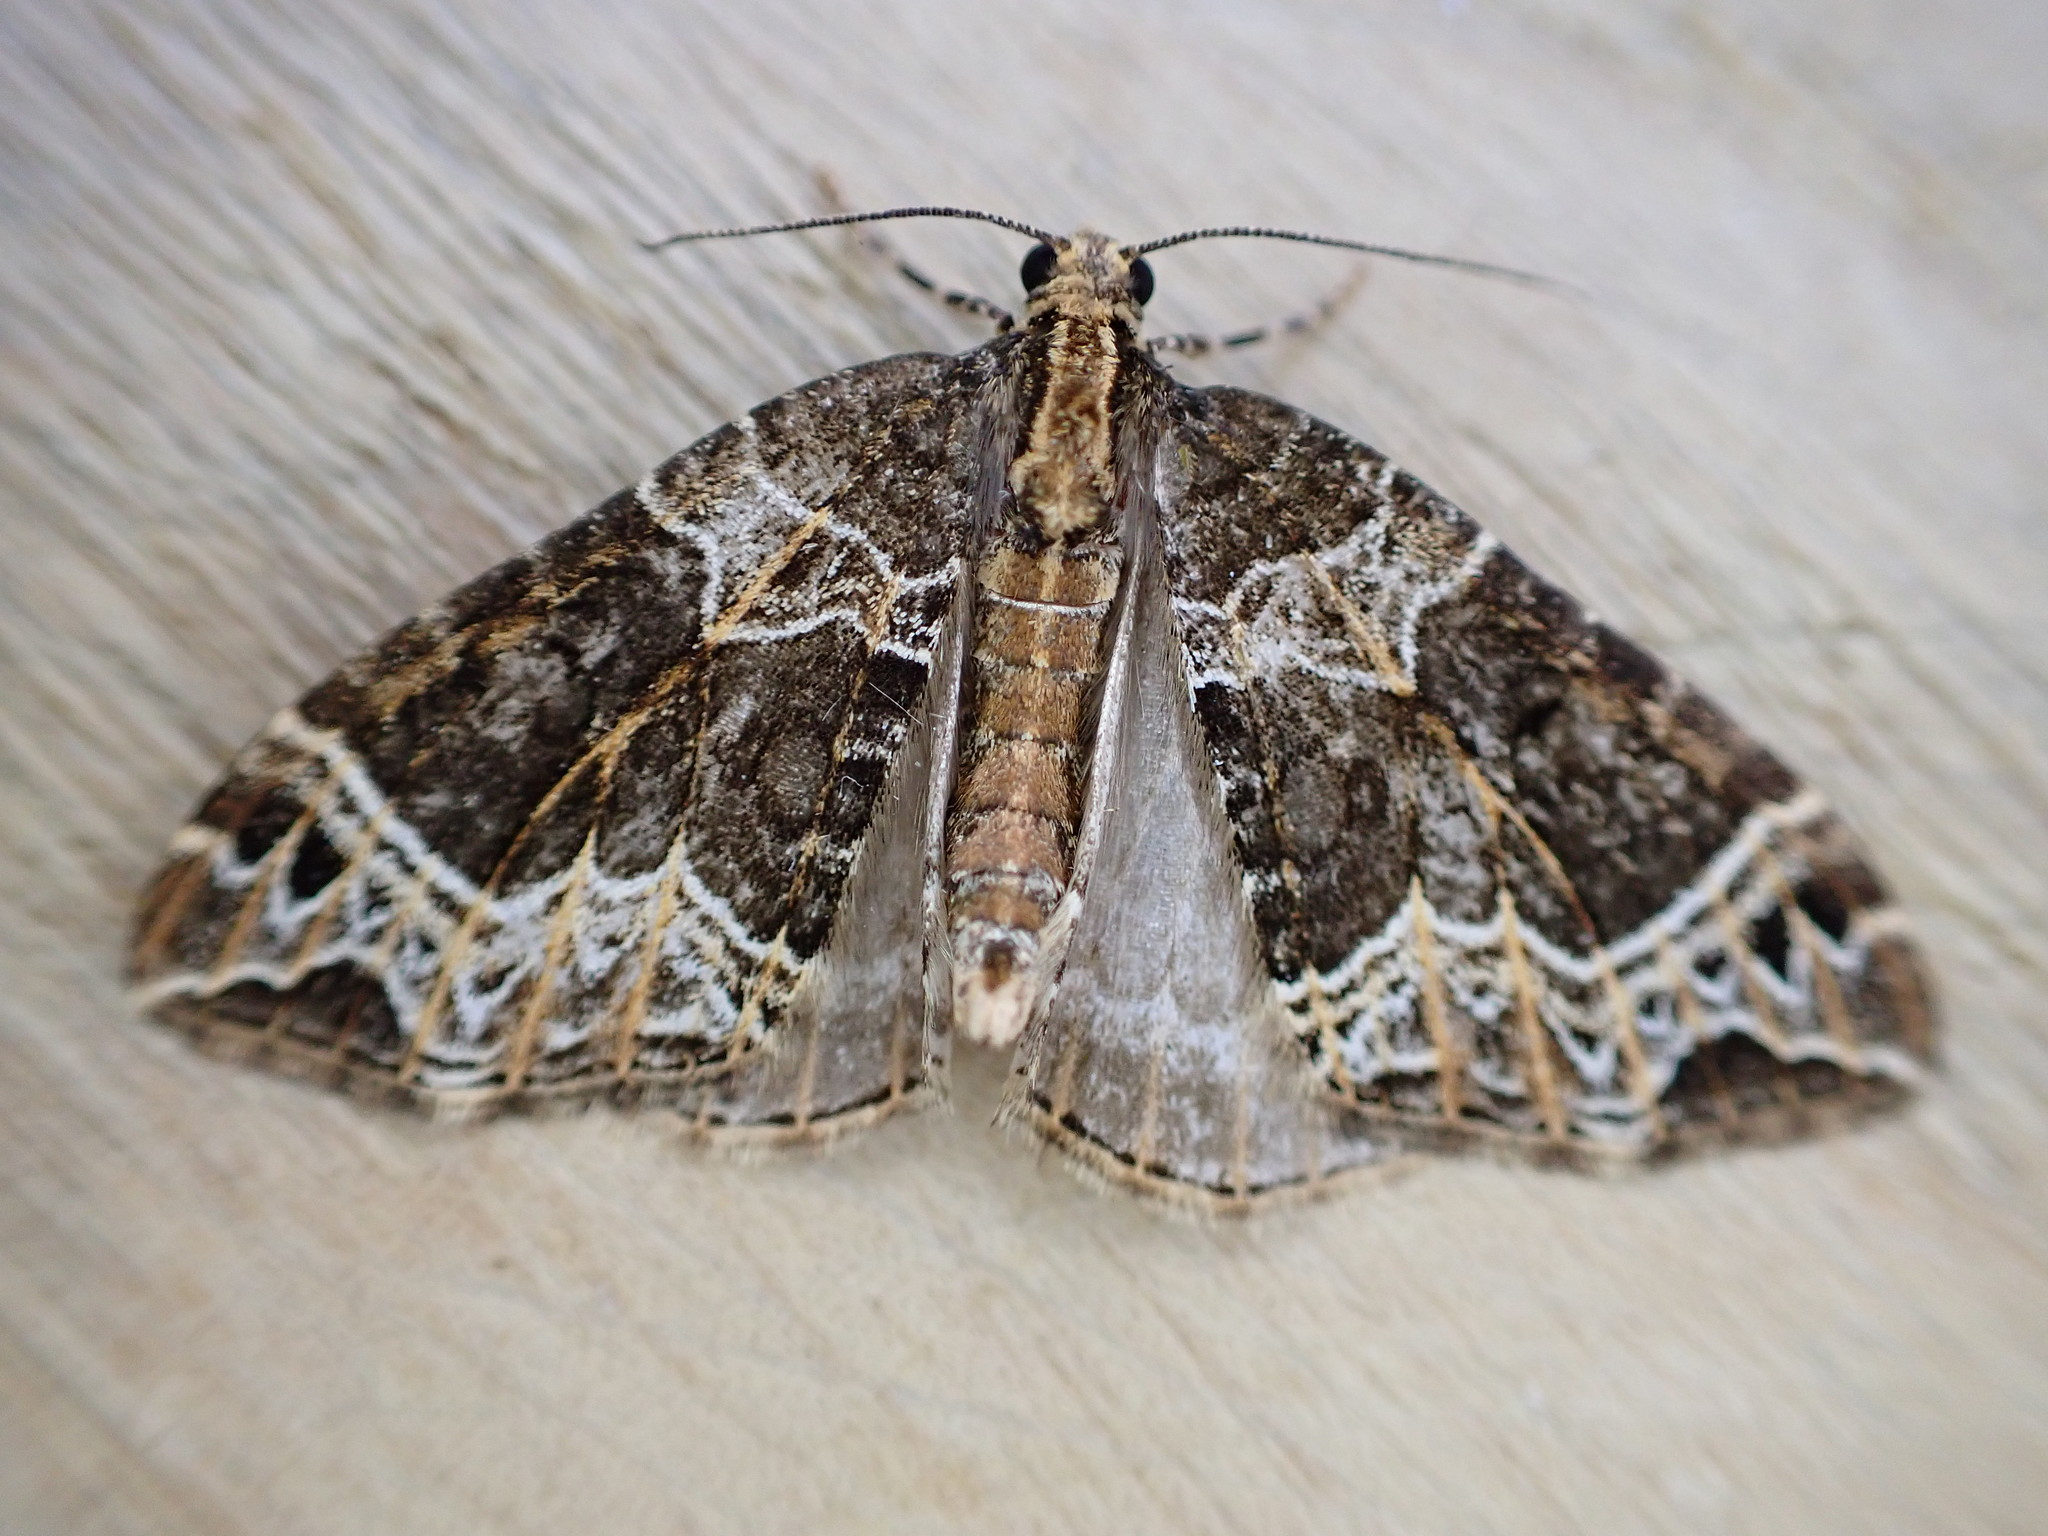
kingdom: Animalia
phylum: Arthropoda
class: Insecta
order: Lepidoptera
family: Geometridae
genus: Ecliptopera
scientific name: Ecliptopera silaceata
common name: Small phoenix
